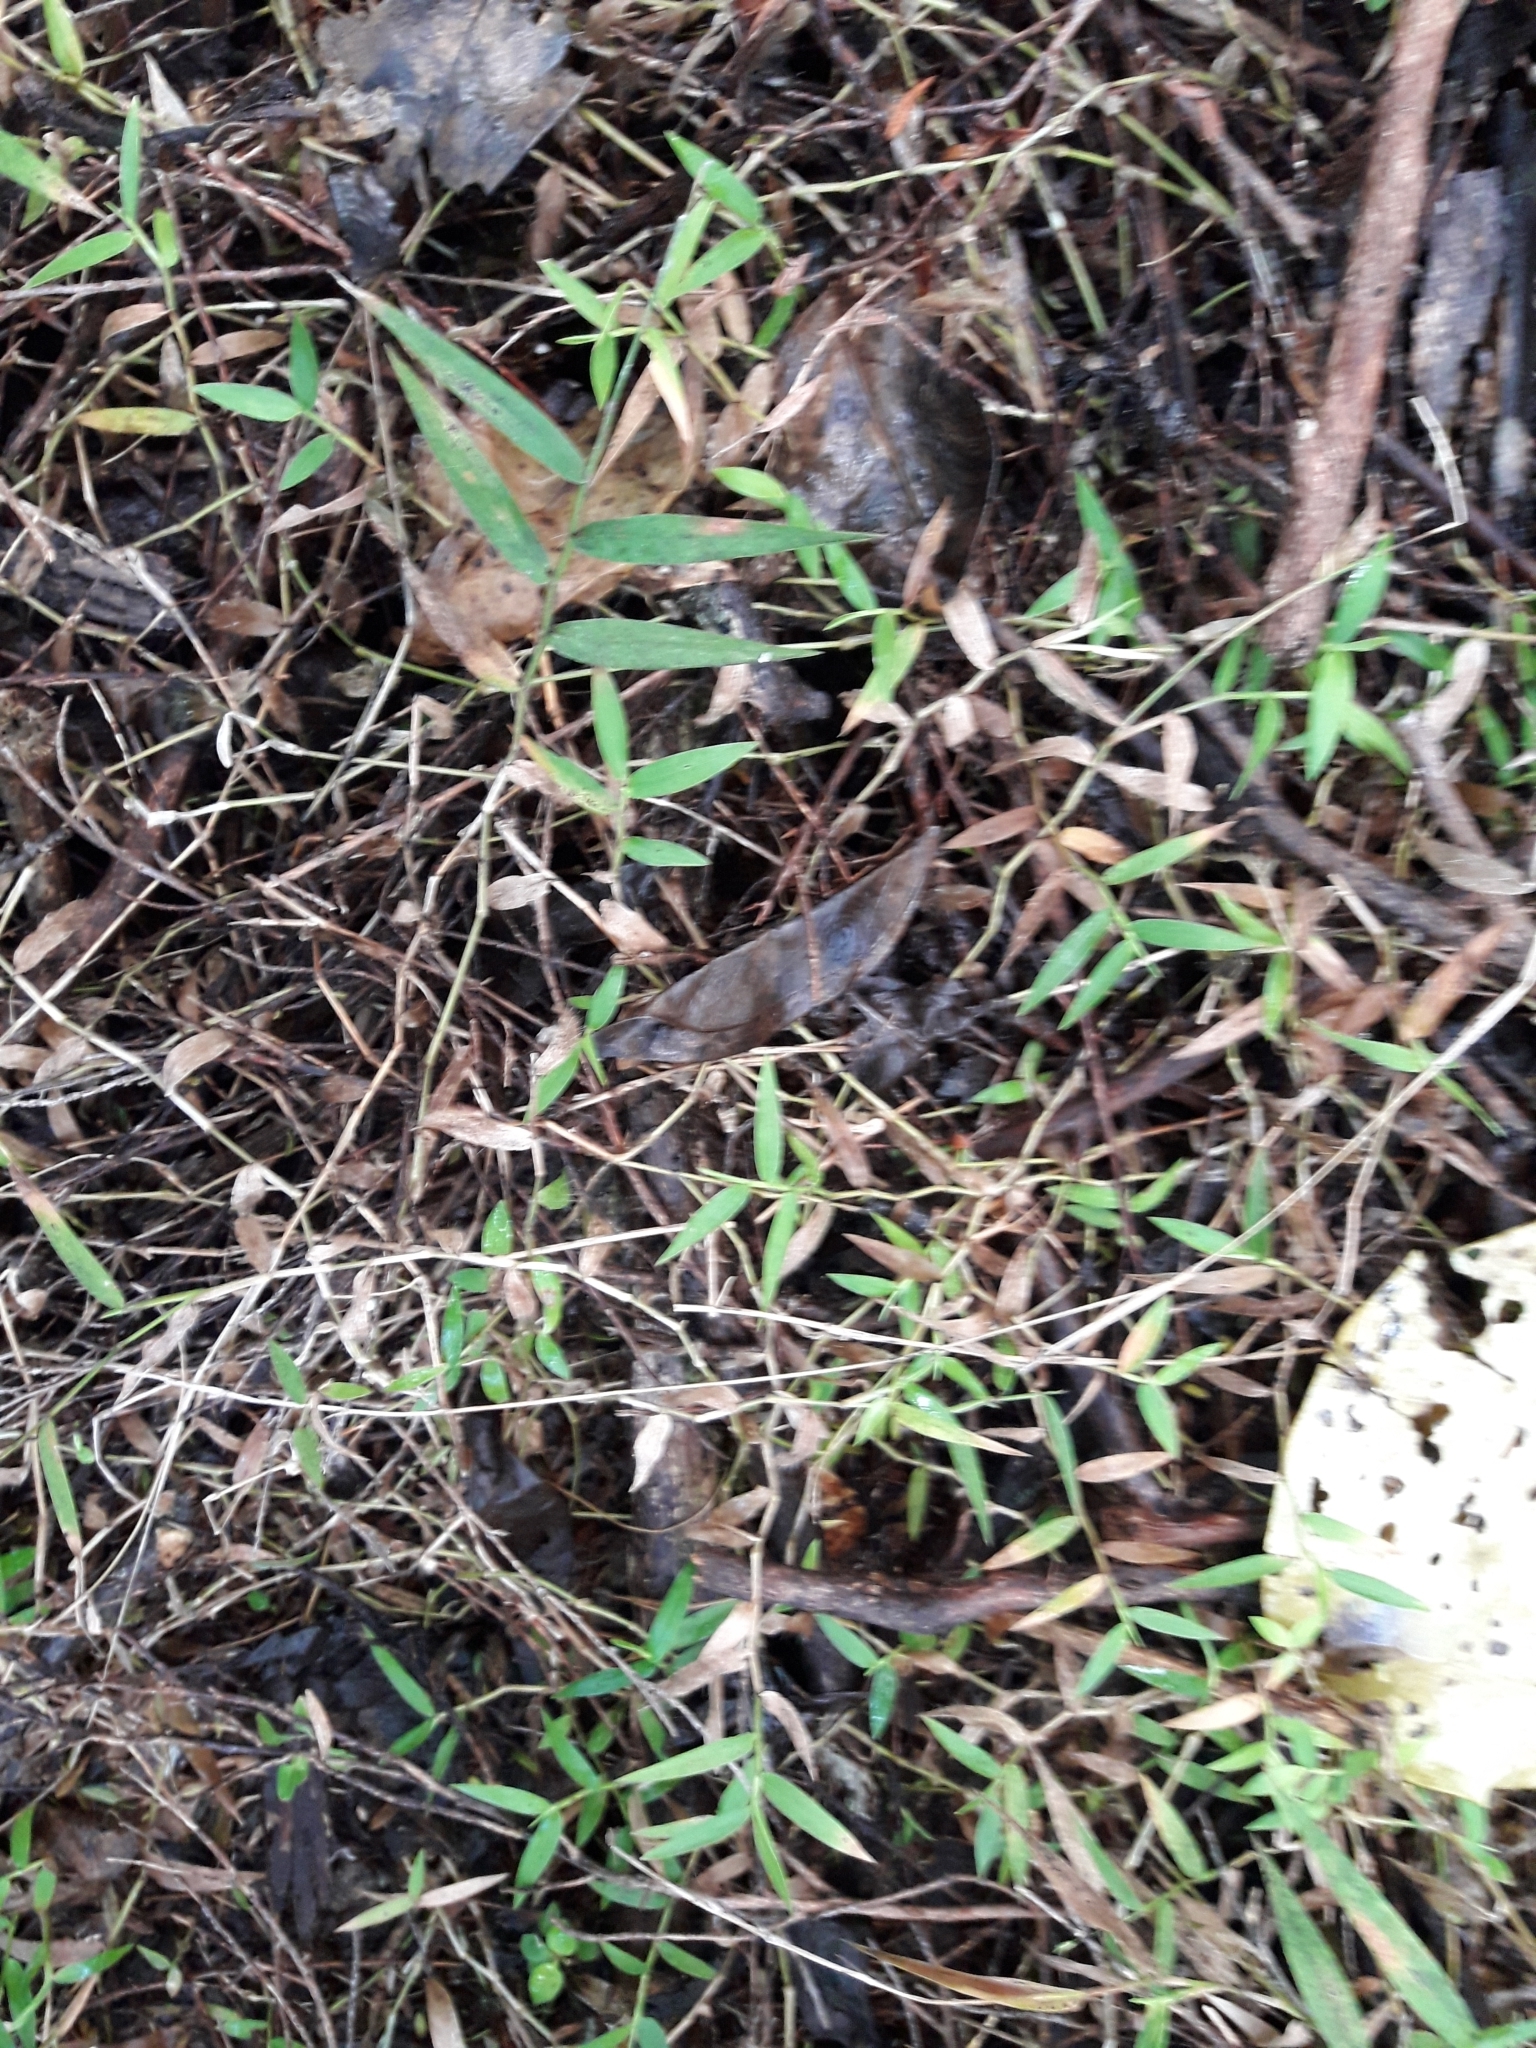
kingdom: Plantae
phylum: Tracheophyta
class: Liliopsida
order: Poales
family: Poaceae
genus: Oplismenus
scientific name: Oplismenus hirtellus
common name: Basketgrass
